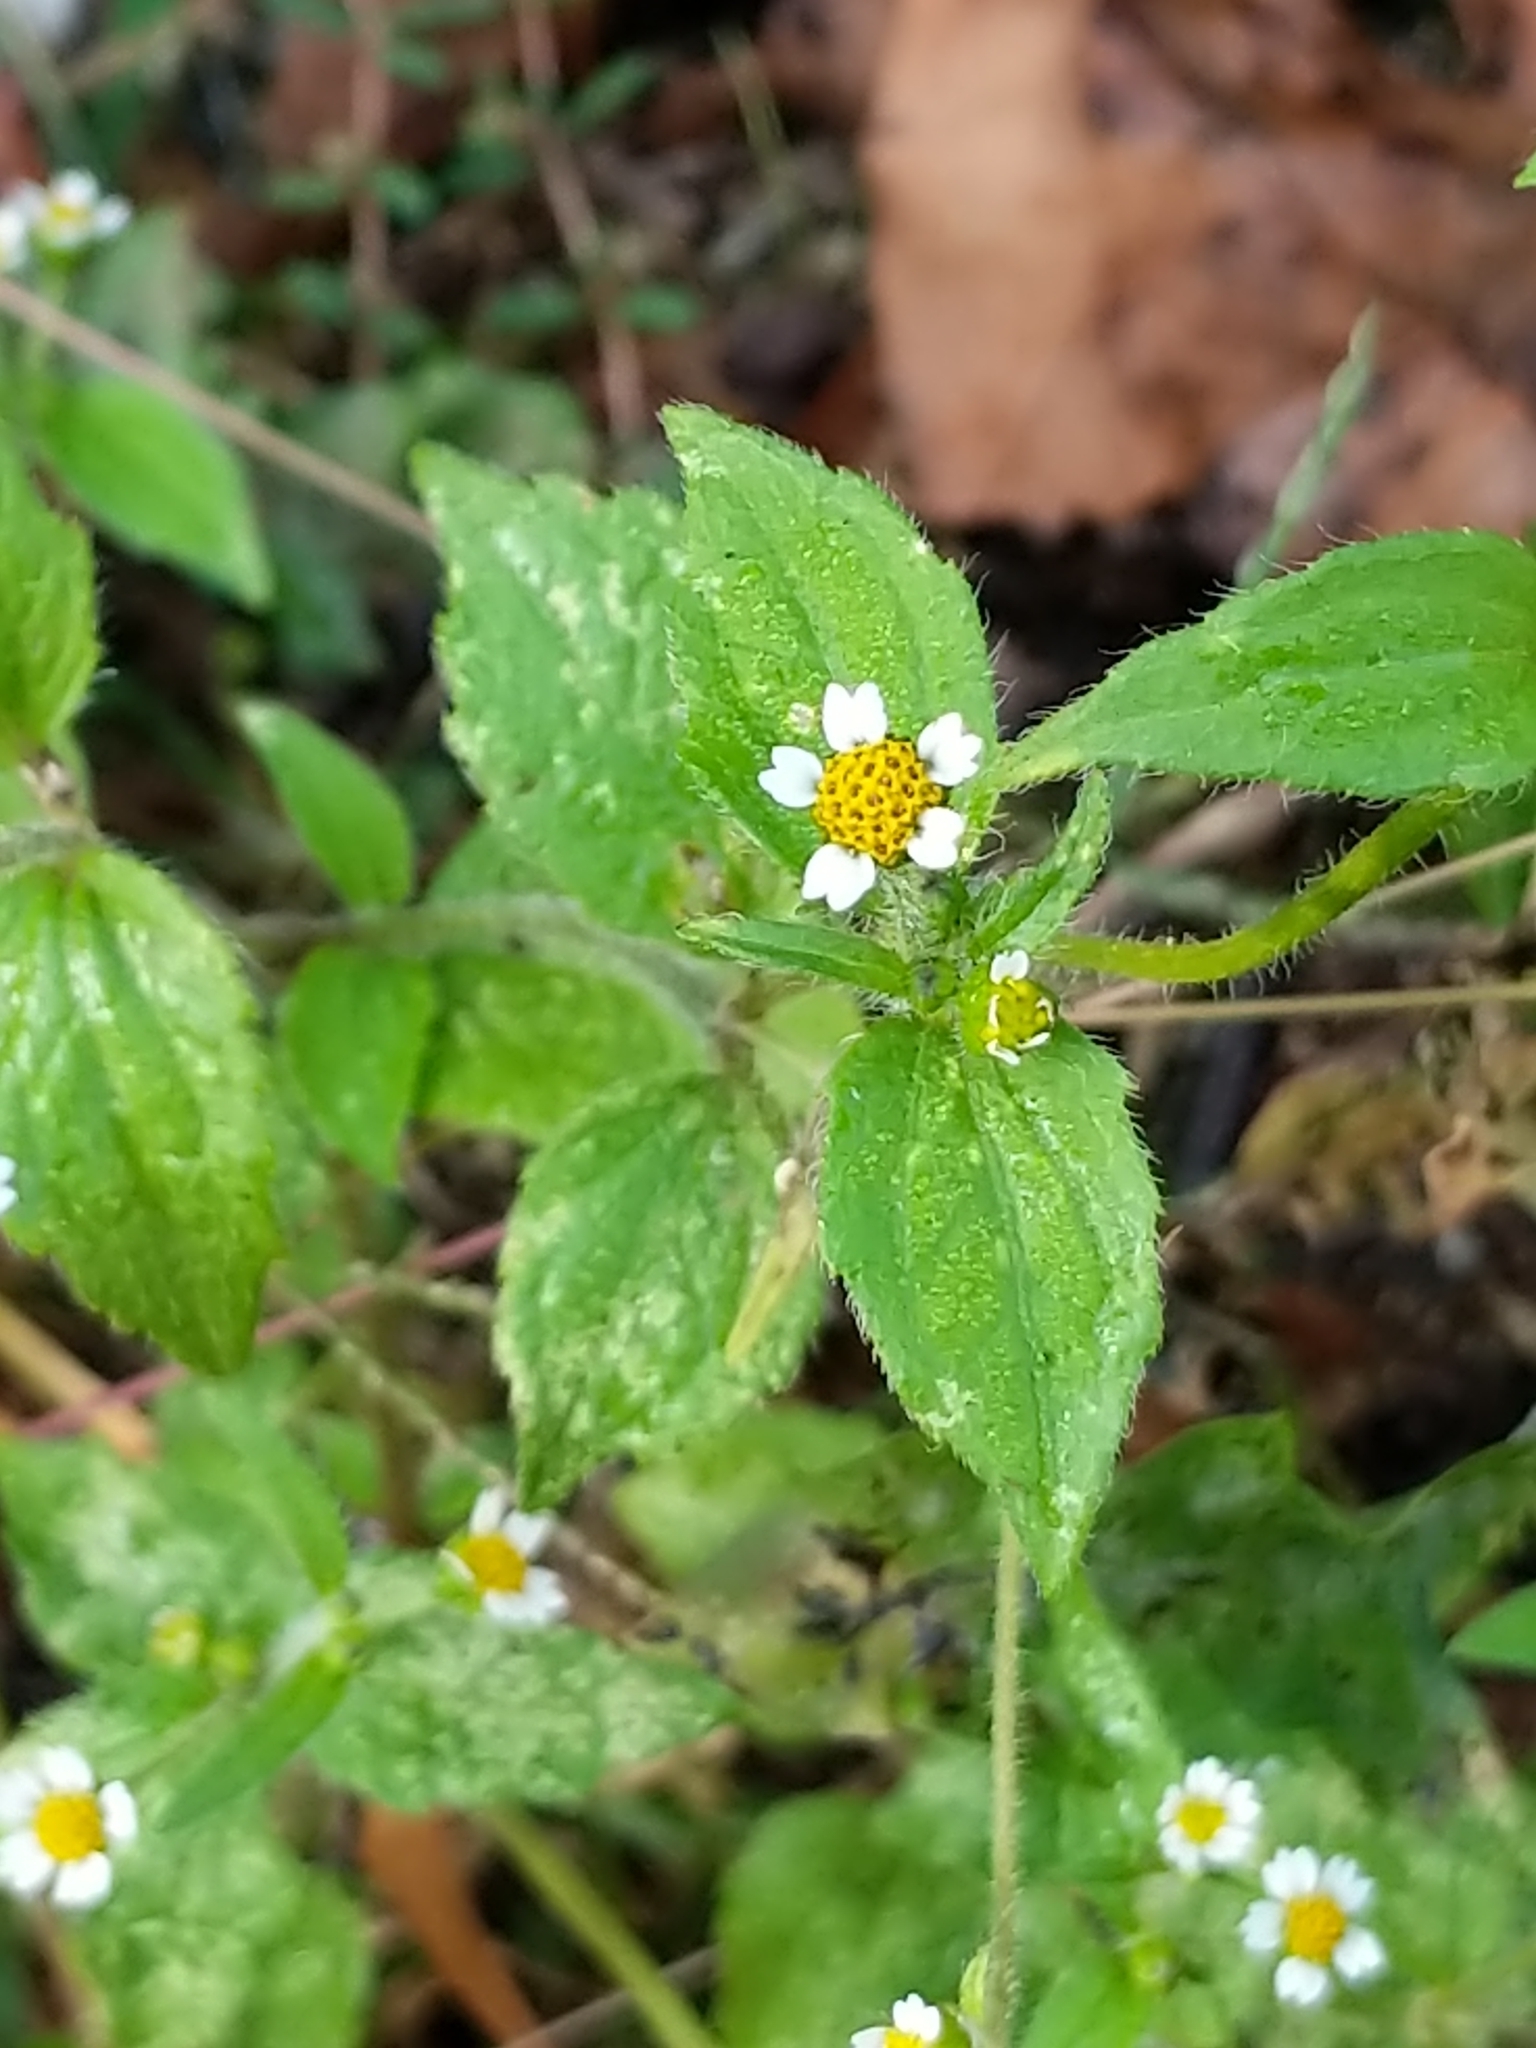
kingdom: Plantae
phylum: Tracheophyta
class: Magnoliopsida
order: Asterales
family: Asteraceae
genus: Galinsoga
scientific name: Galinsoga quadriradiata
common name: Shaggy soldier
